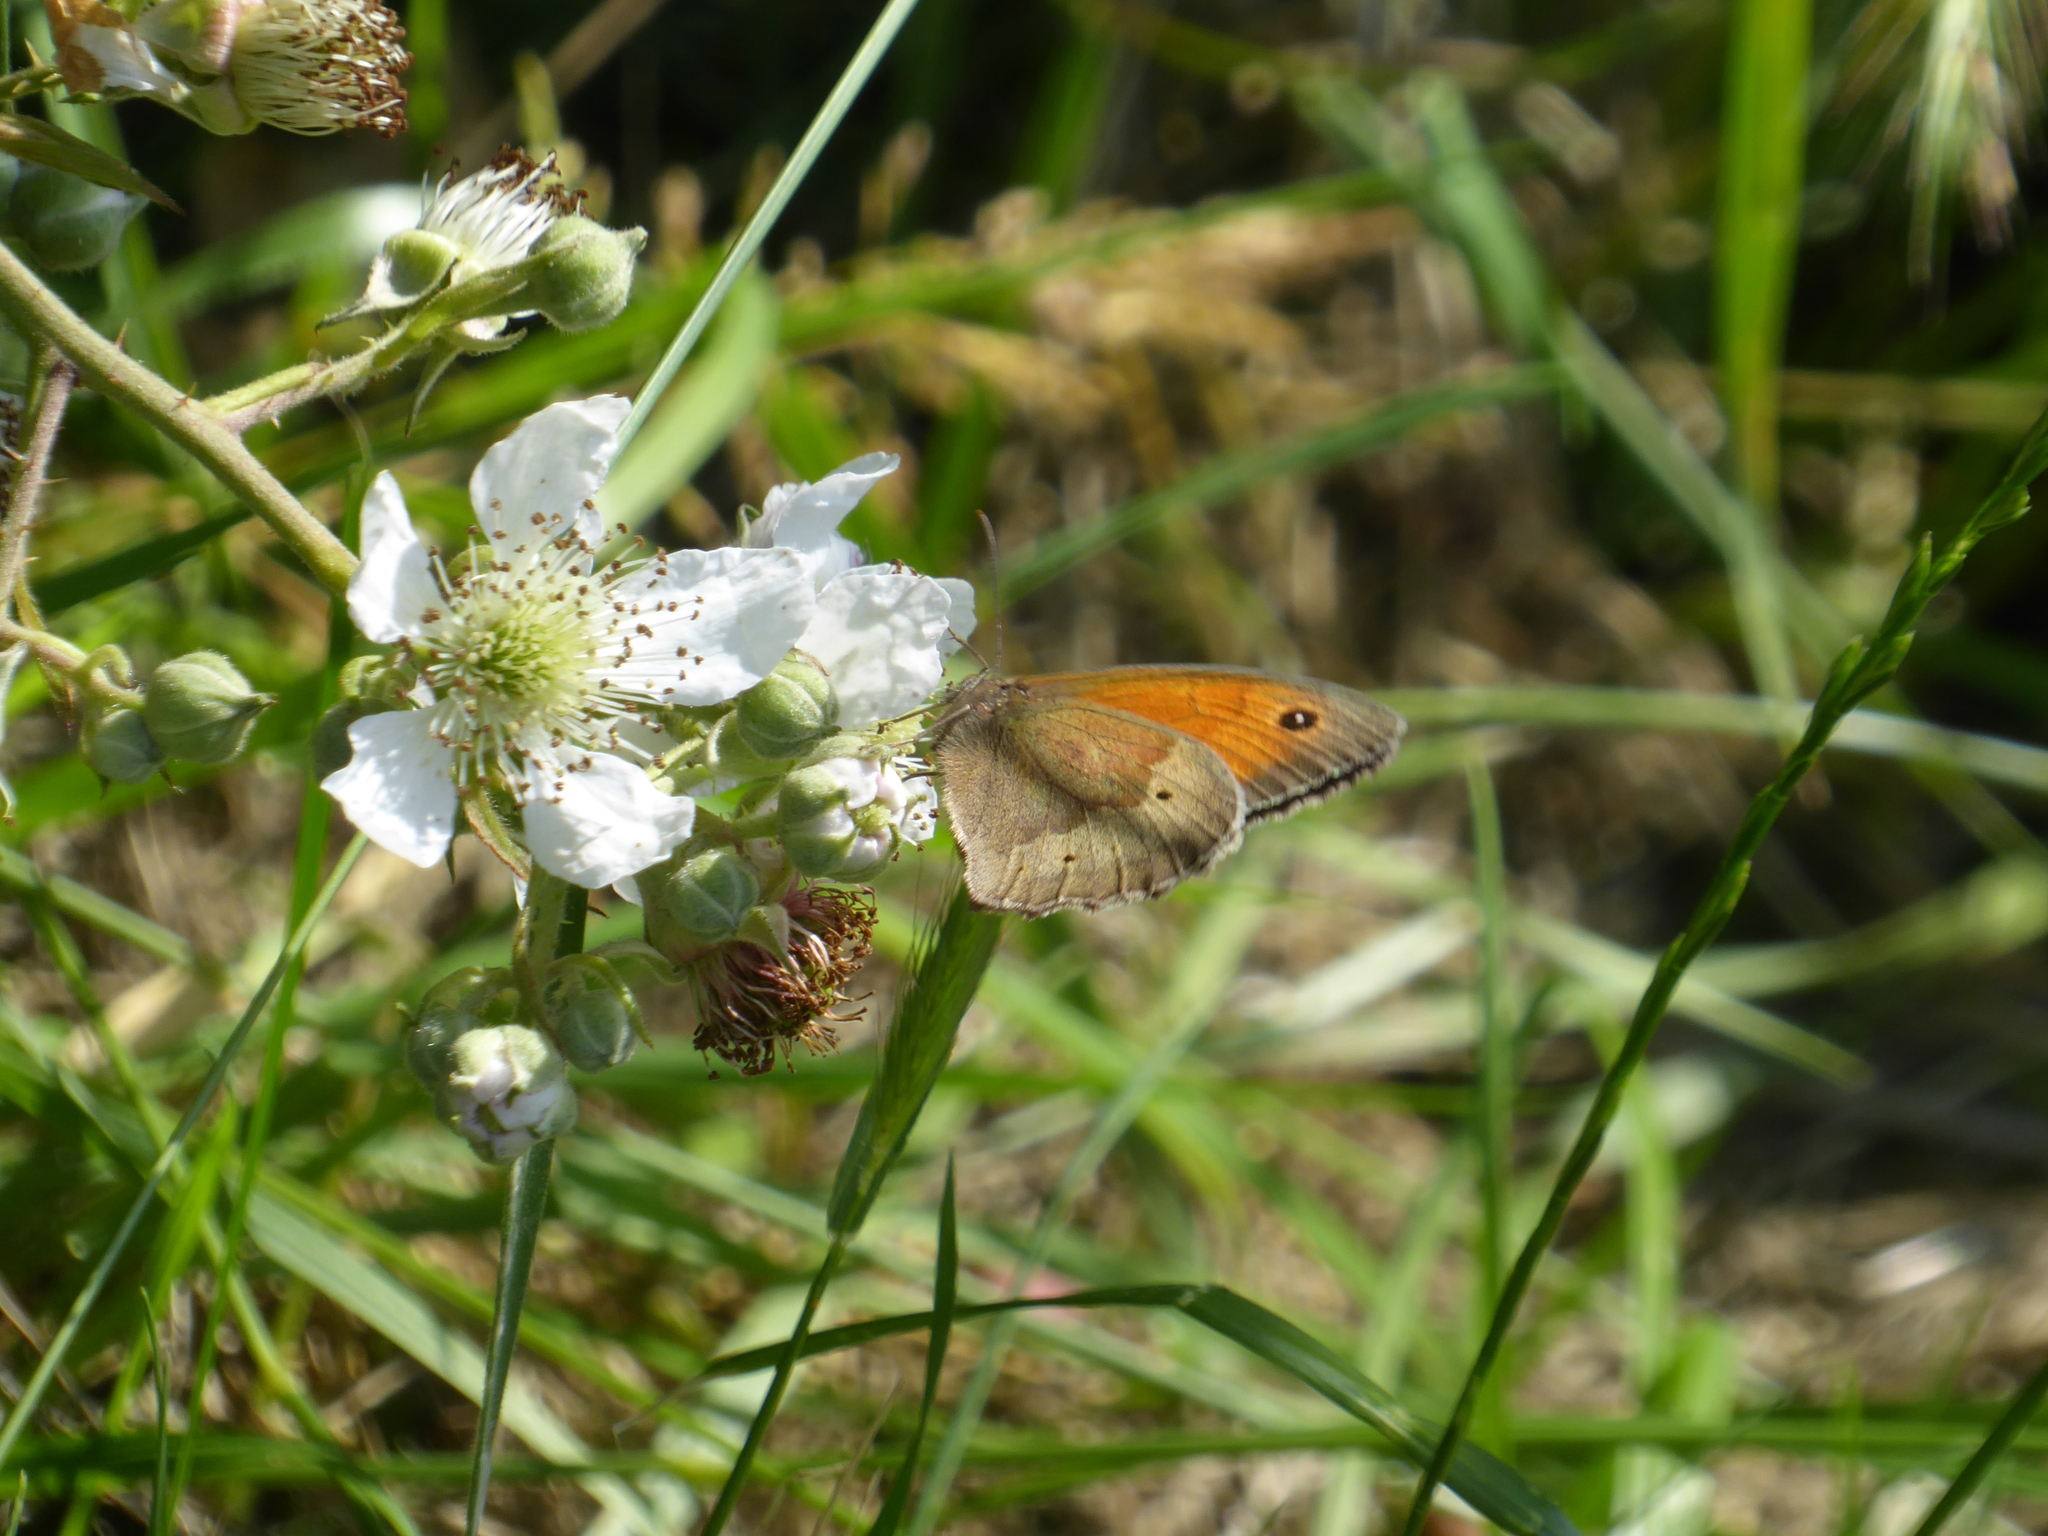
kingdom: Animalia
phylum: Arthropoda
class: Insecta
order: Lepidoptera
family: Nymphalidae
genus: Maniola
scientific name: Maniola jurtina
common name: Meadow brown
